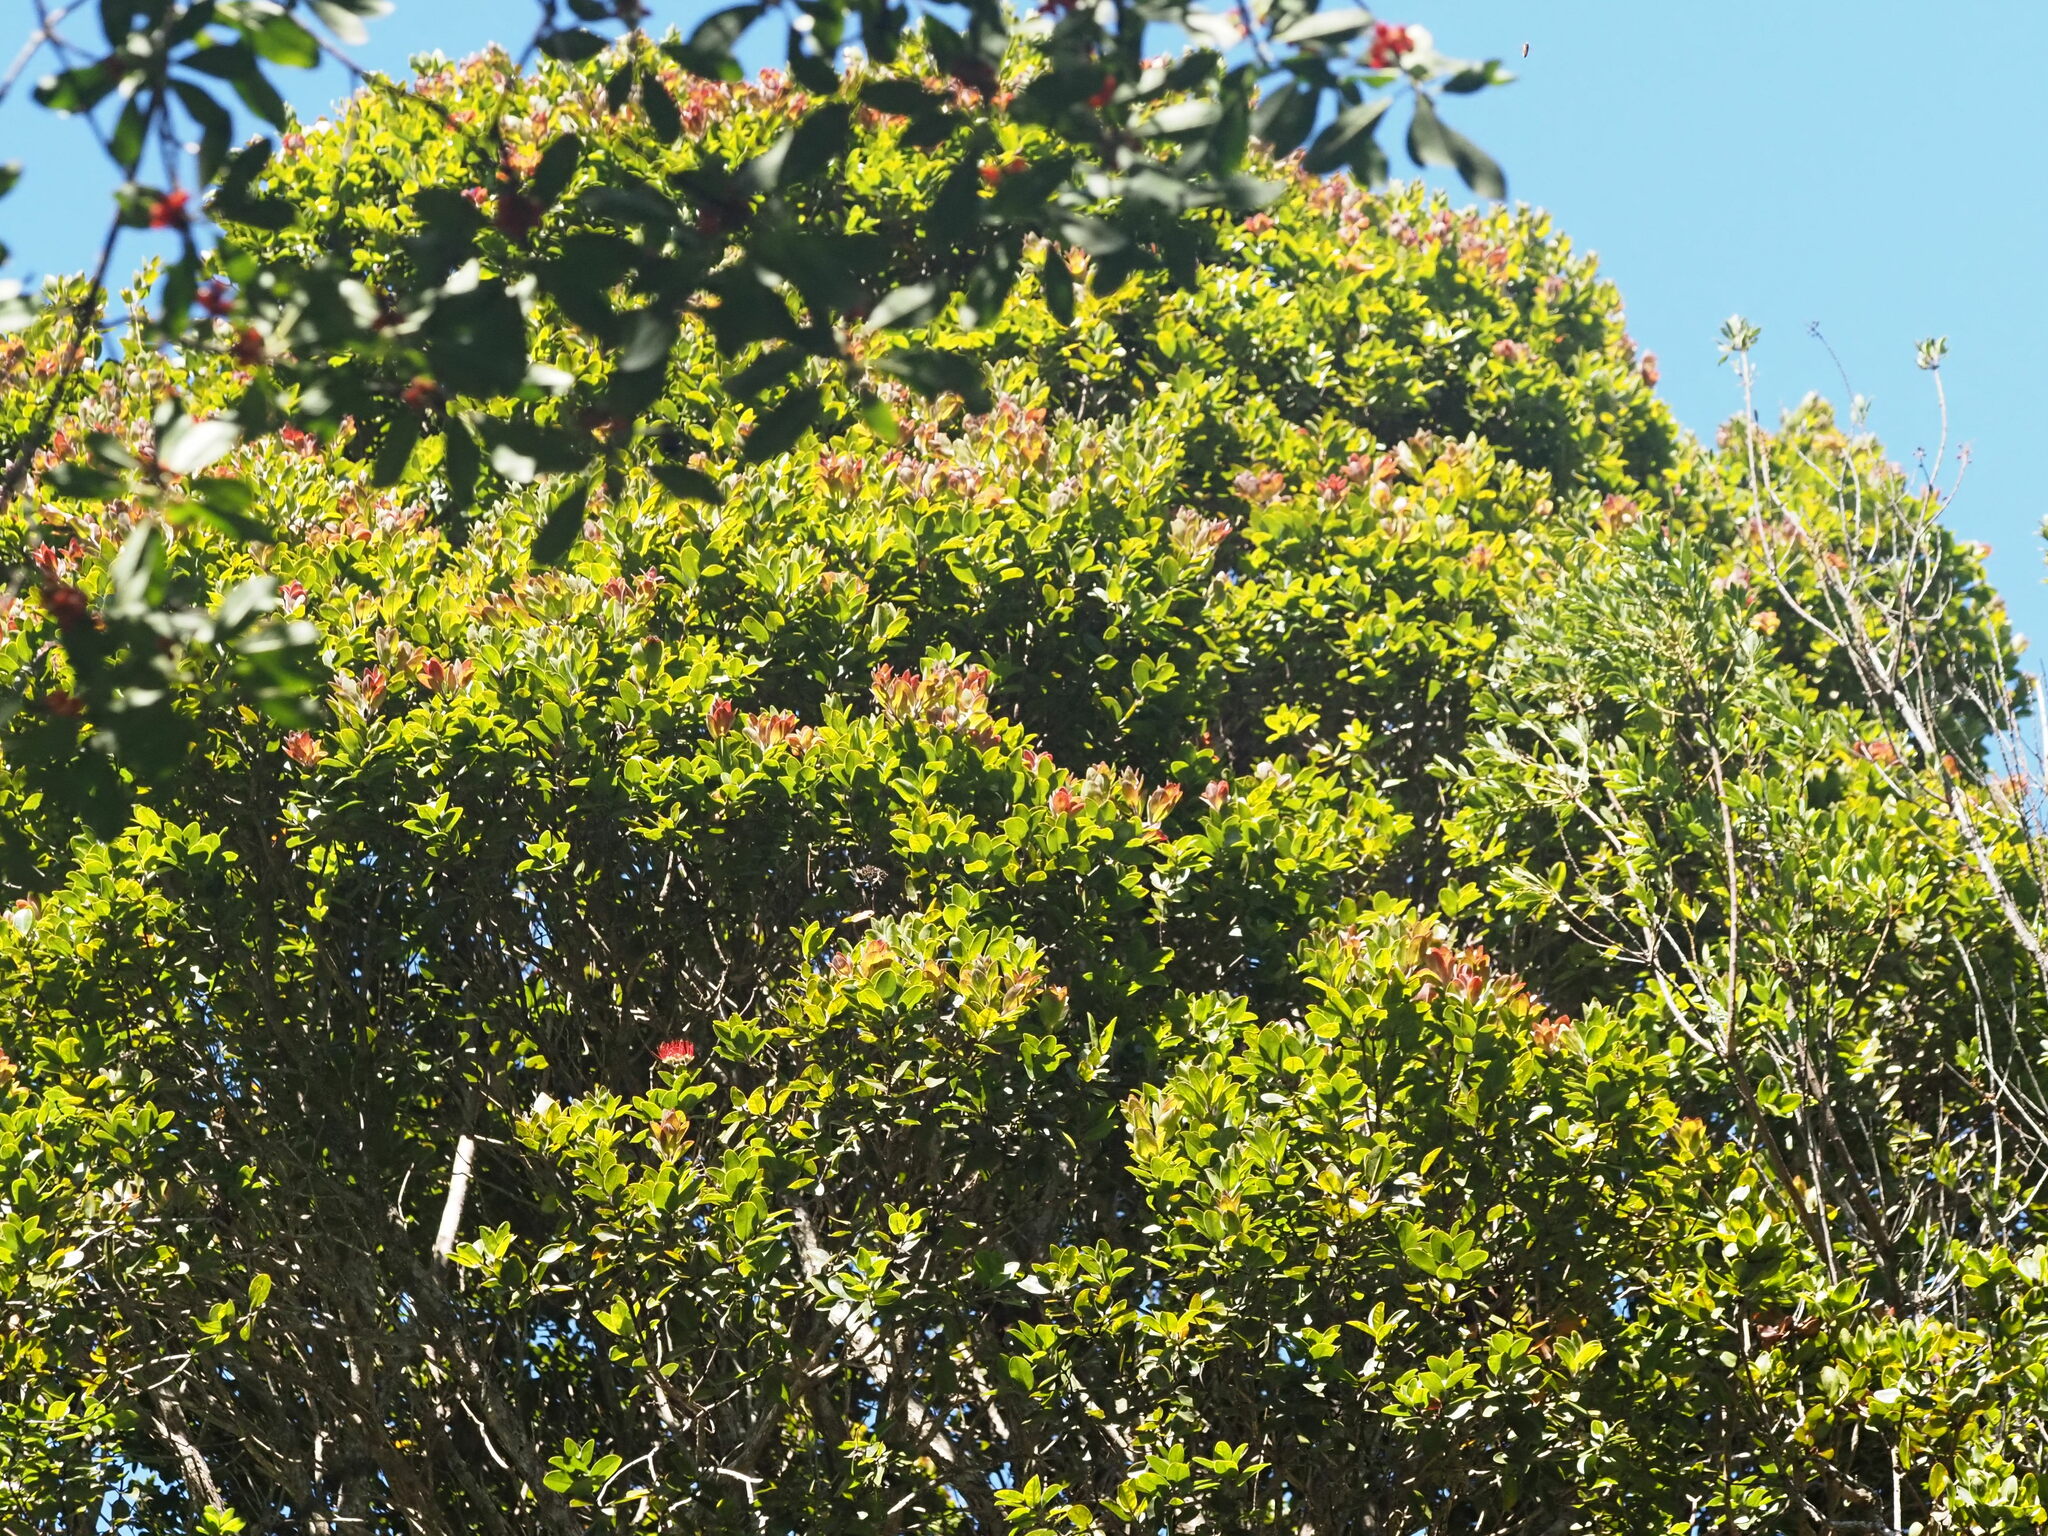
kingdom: Plantae
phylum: Tracheophyta
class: Magnoliopsida
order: Myrtales
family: Myrtaceae
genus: Metrosideros
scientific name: Metrosideros polymorpha
